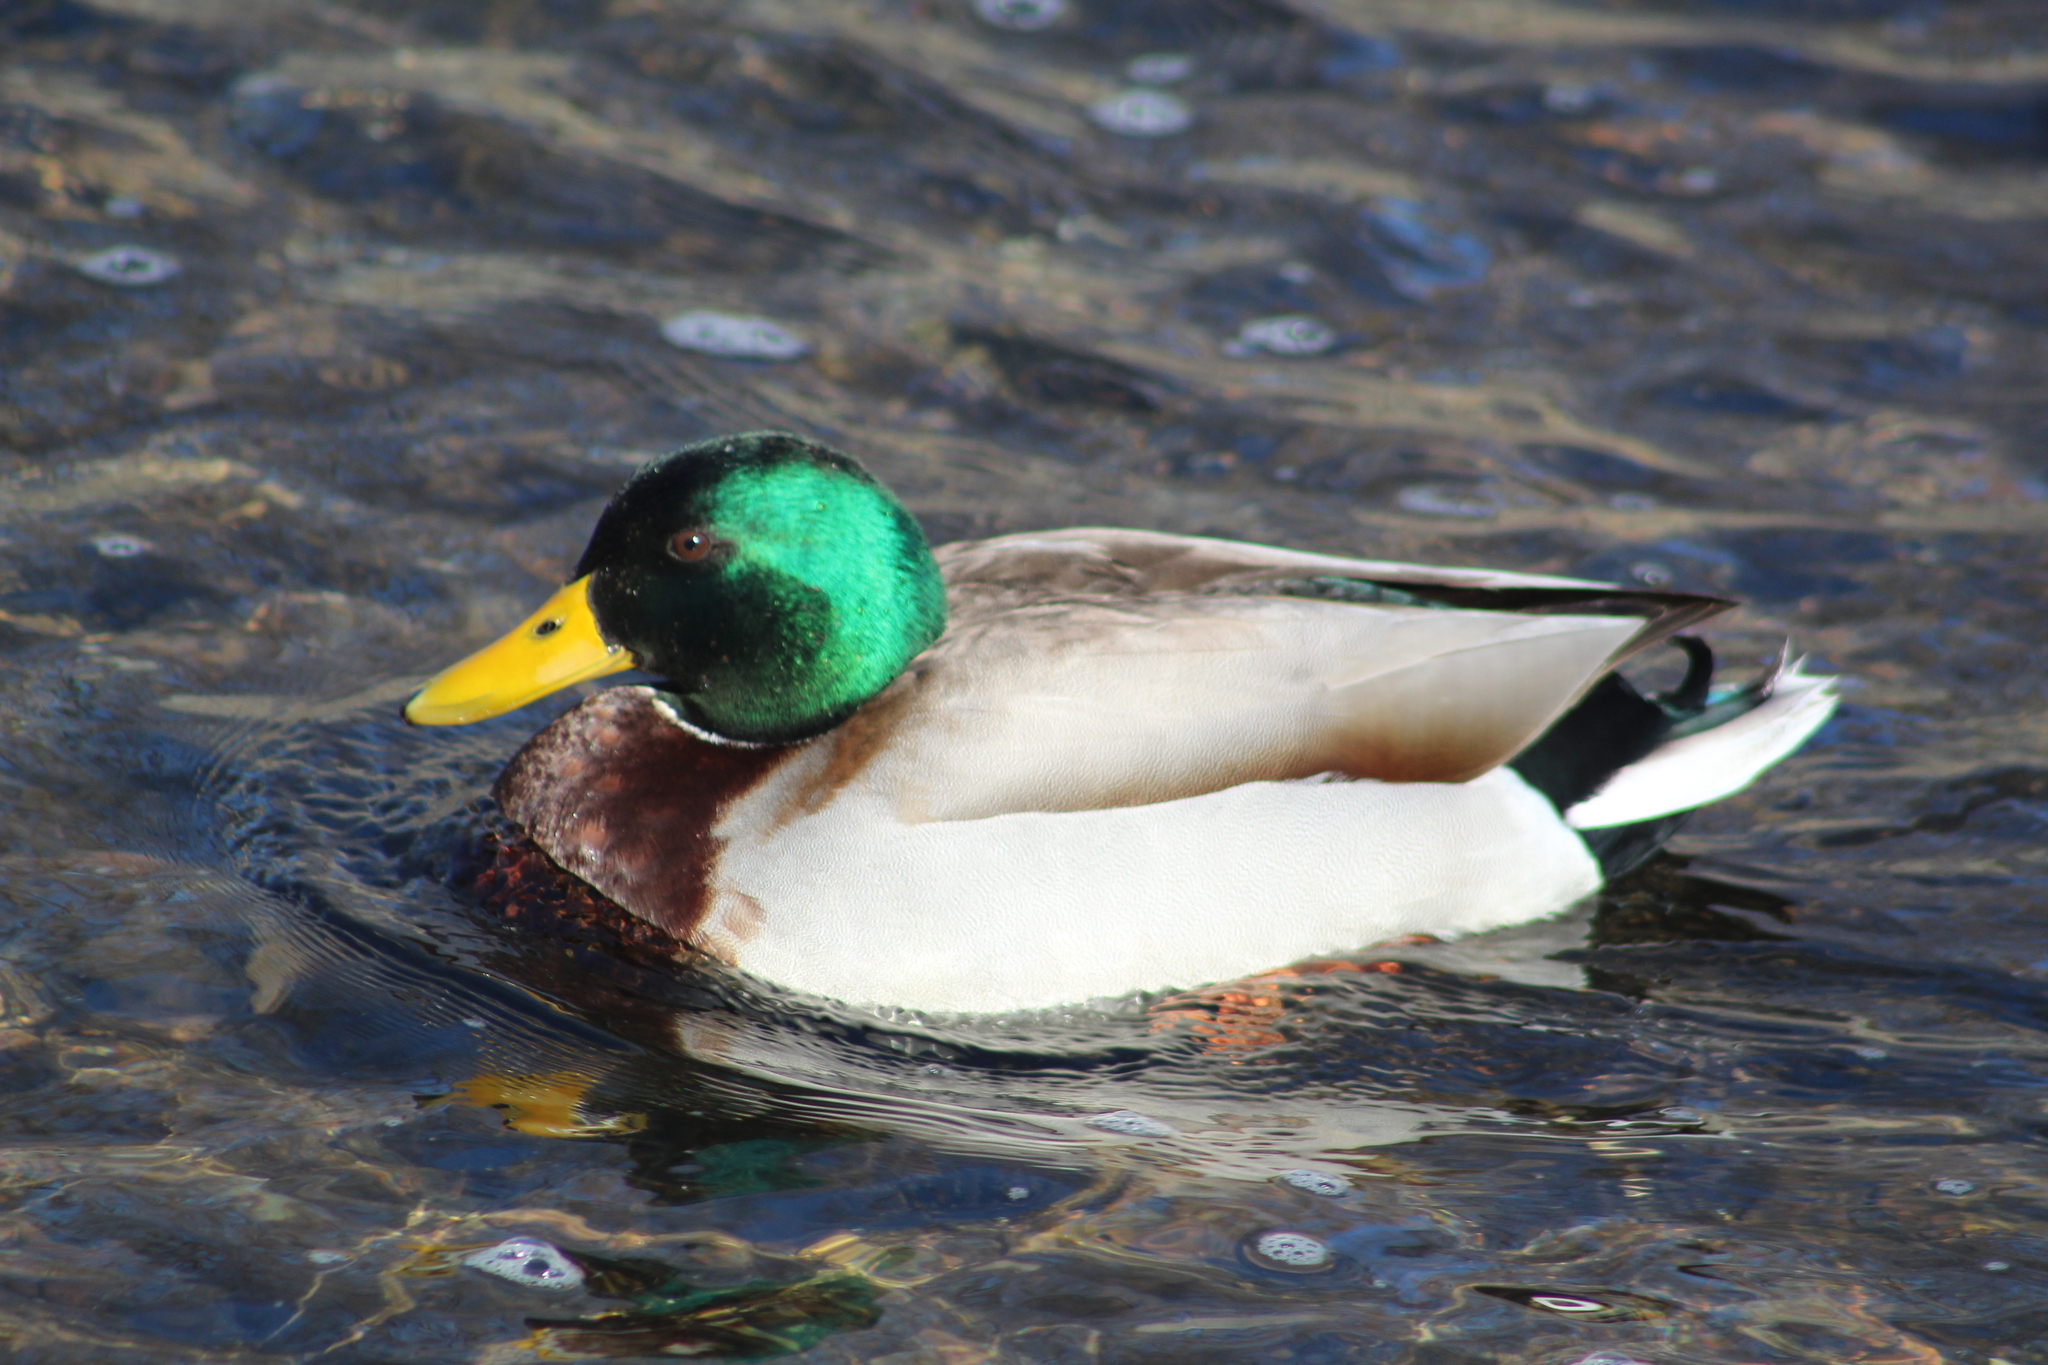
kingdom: Animalia
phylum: Chordata
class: Aves
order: Anseriformes
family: Anatidae
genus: Anas
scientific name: Anas platyrhynchos
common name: Mallard
